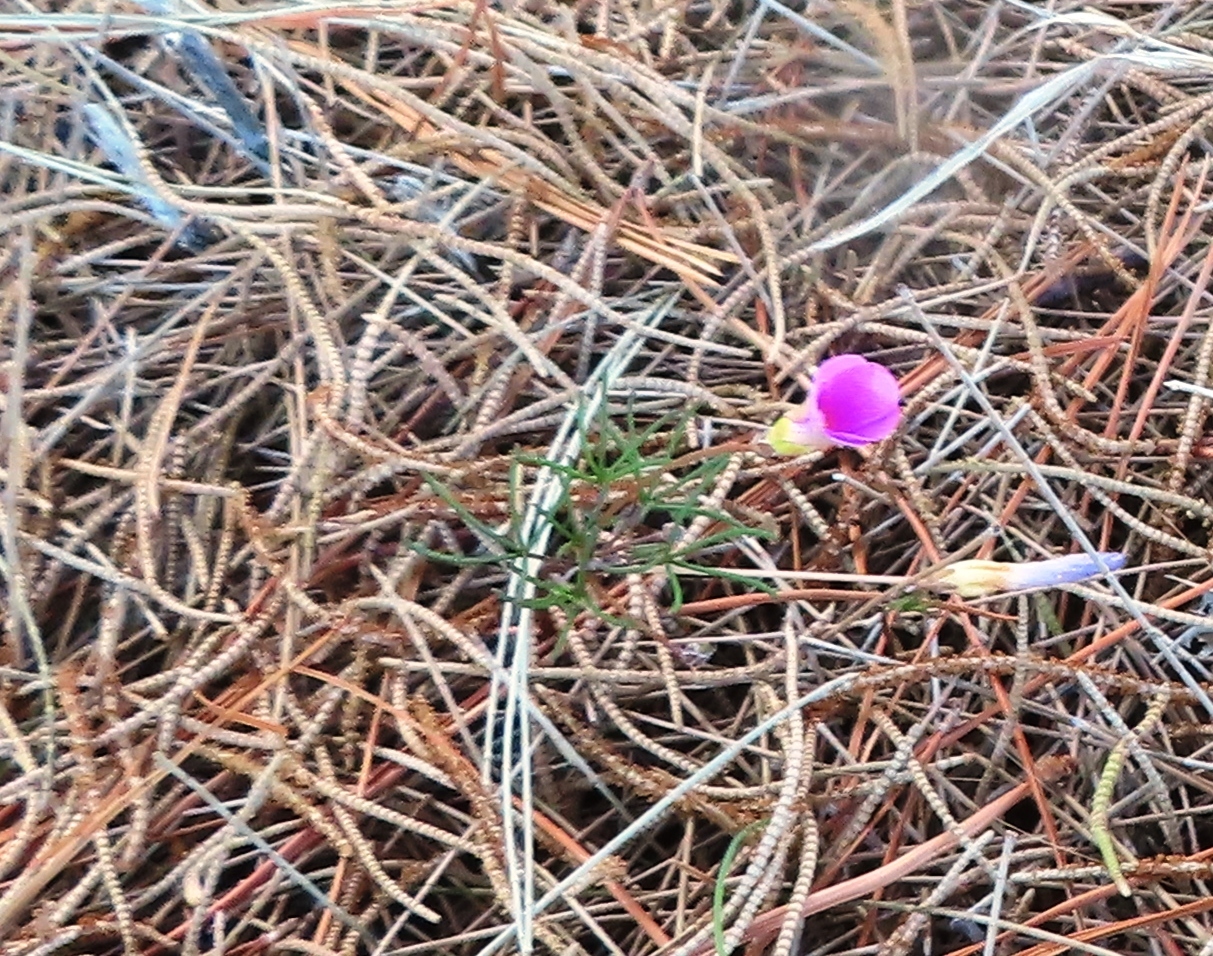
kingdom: Plantae
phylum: Tracheophyta
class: Magnoliopsida
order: Oxalidales
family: Oxalidaceae
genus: Oxalis
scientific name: Oxalis polyphylla
